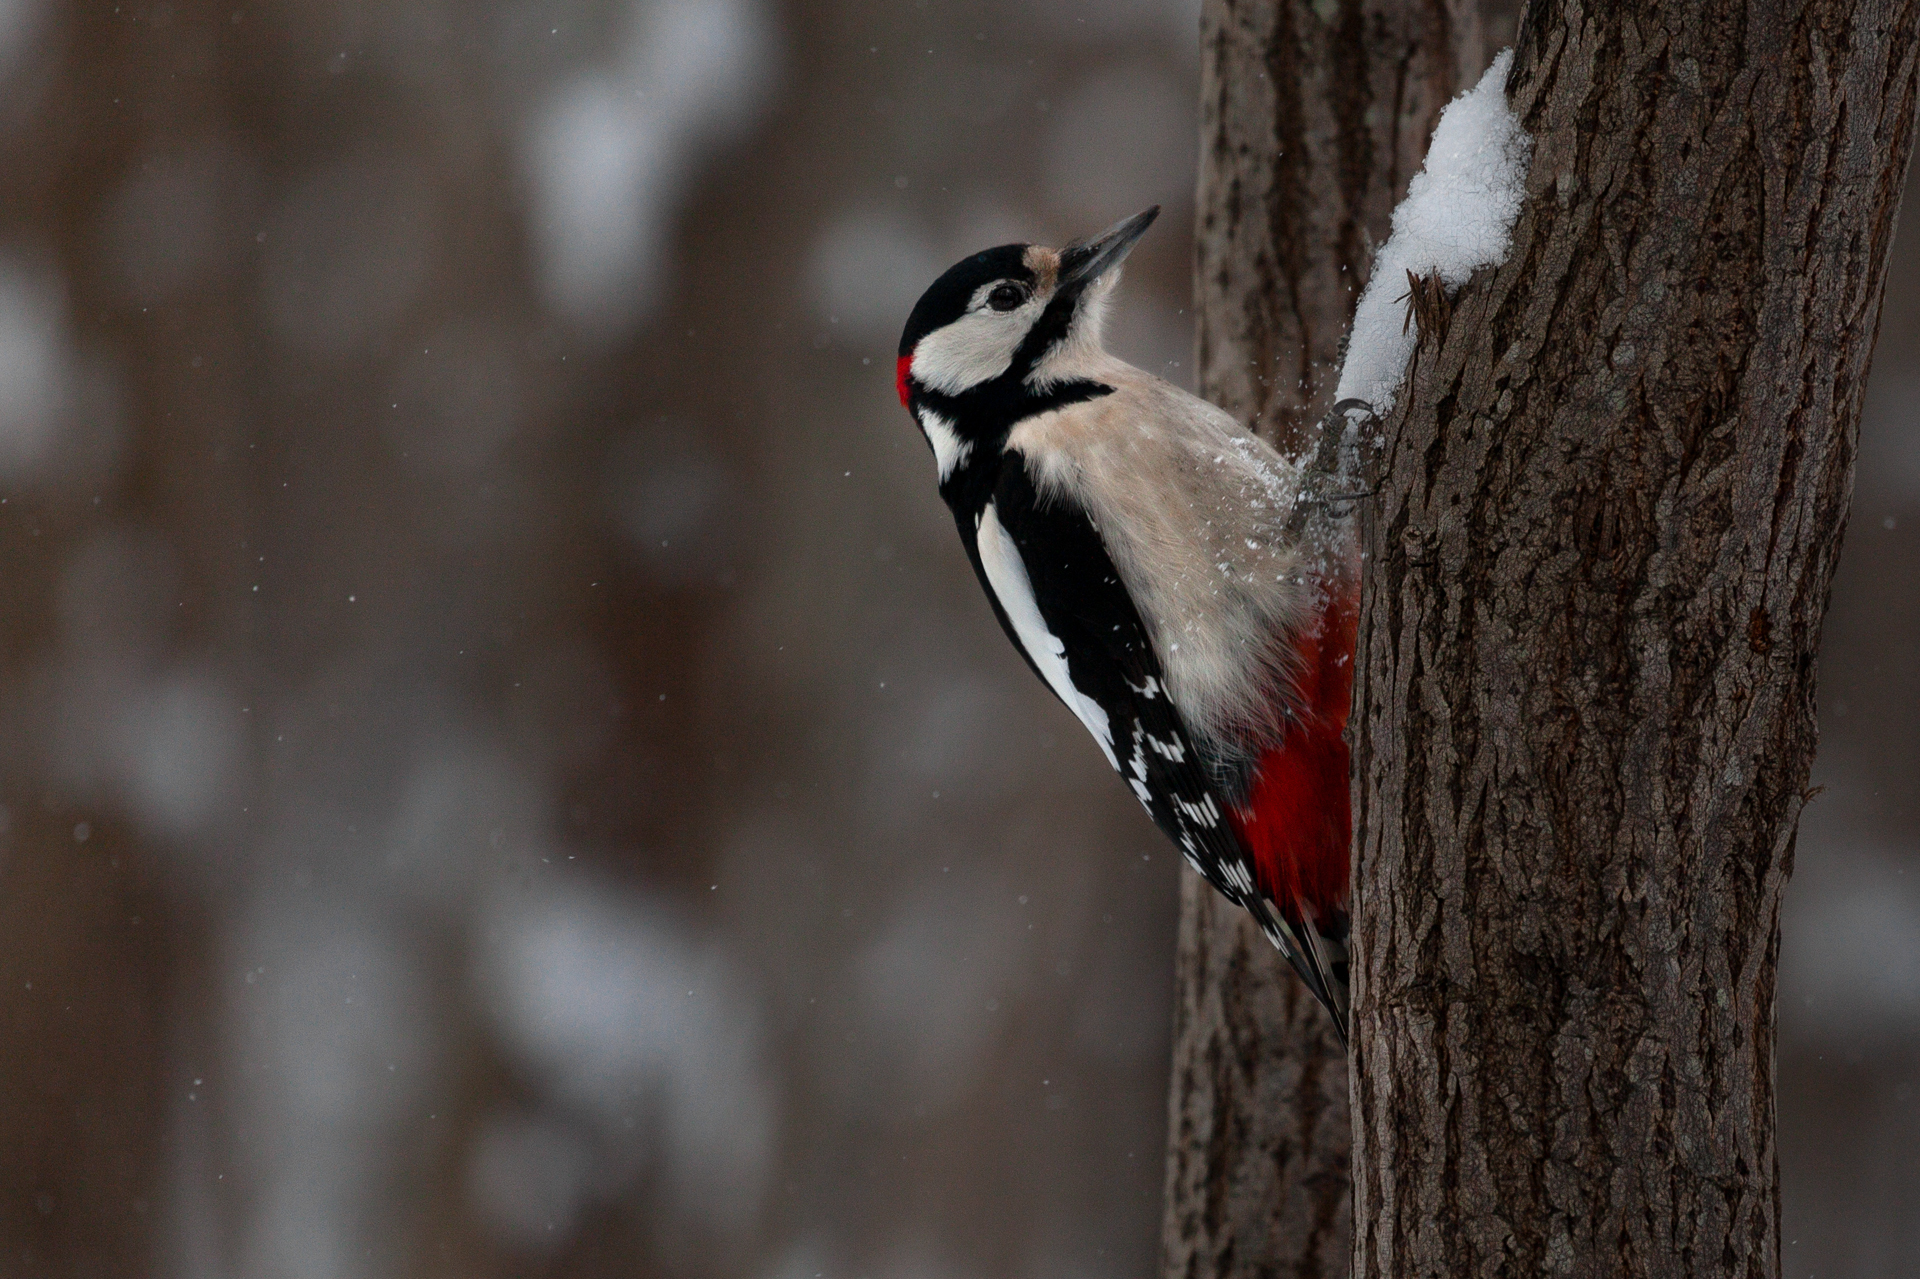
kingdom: Animalia
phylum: Chordata
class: Aves
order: Piciformes
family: Picidae
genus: Dendrocopos
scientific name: Dendrocopos major
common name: Great spotted woodpecker
